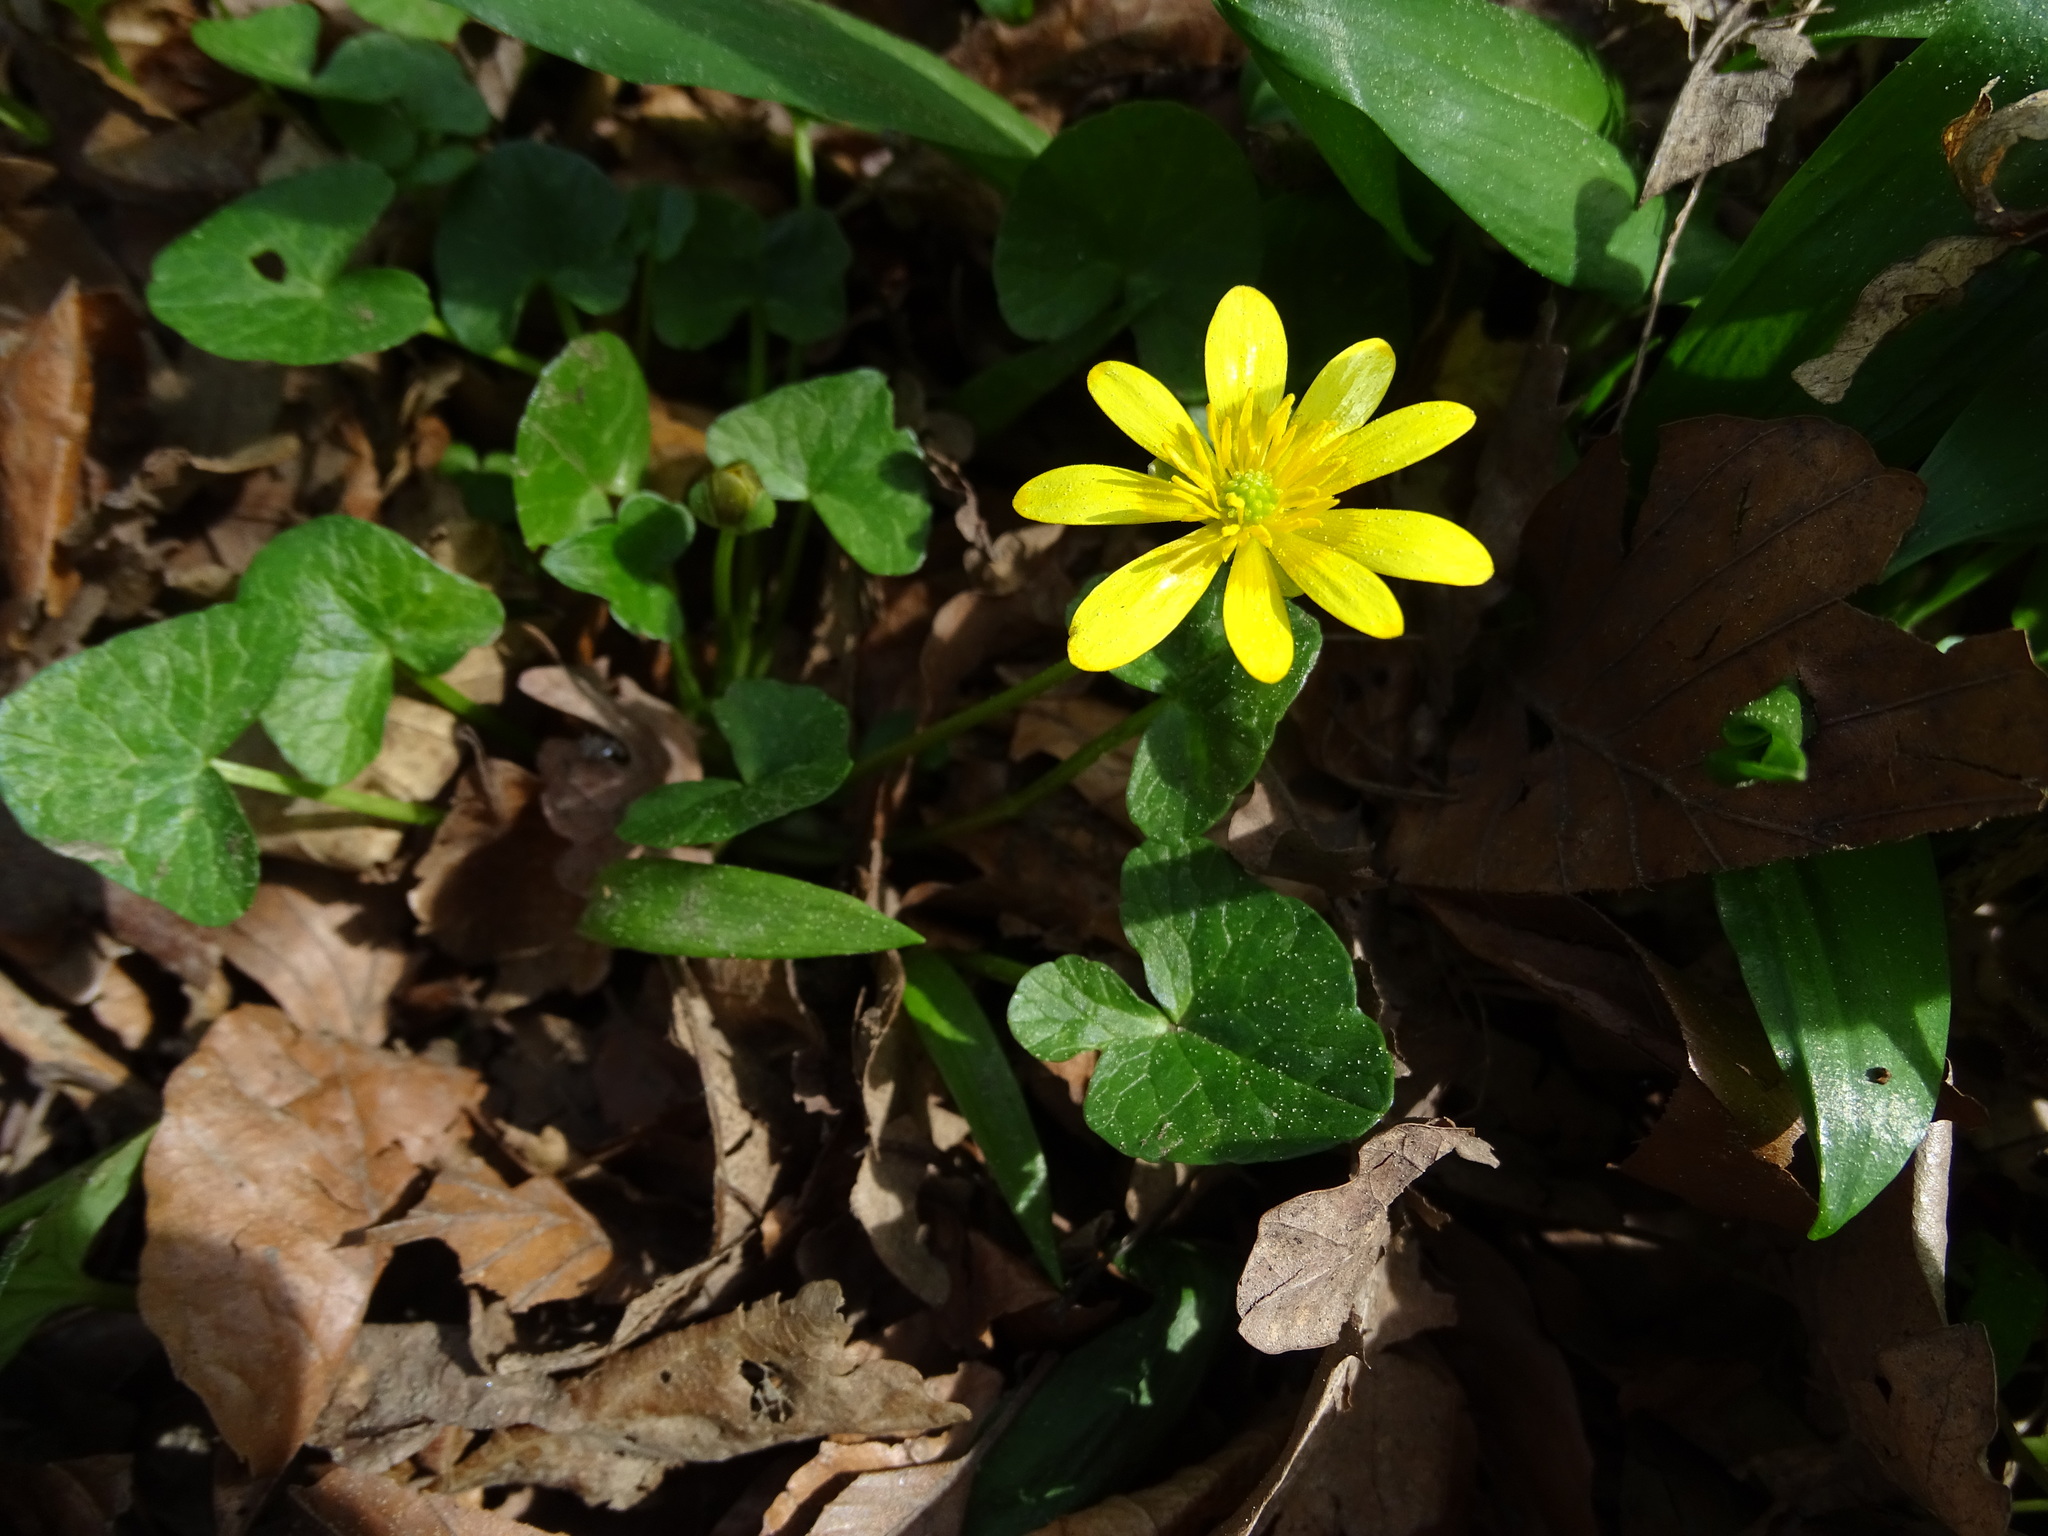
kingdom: Plantae
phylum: Tracheophyta
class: Magnoliopsida
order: Ranunculales
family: Ranunculaceae
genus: Ficaria
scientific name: Ficaria verna
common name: Lesser celandine
